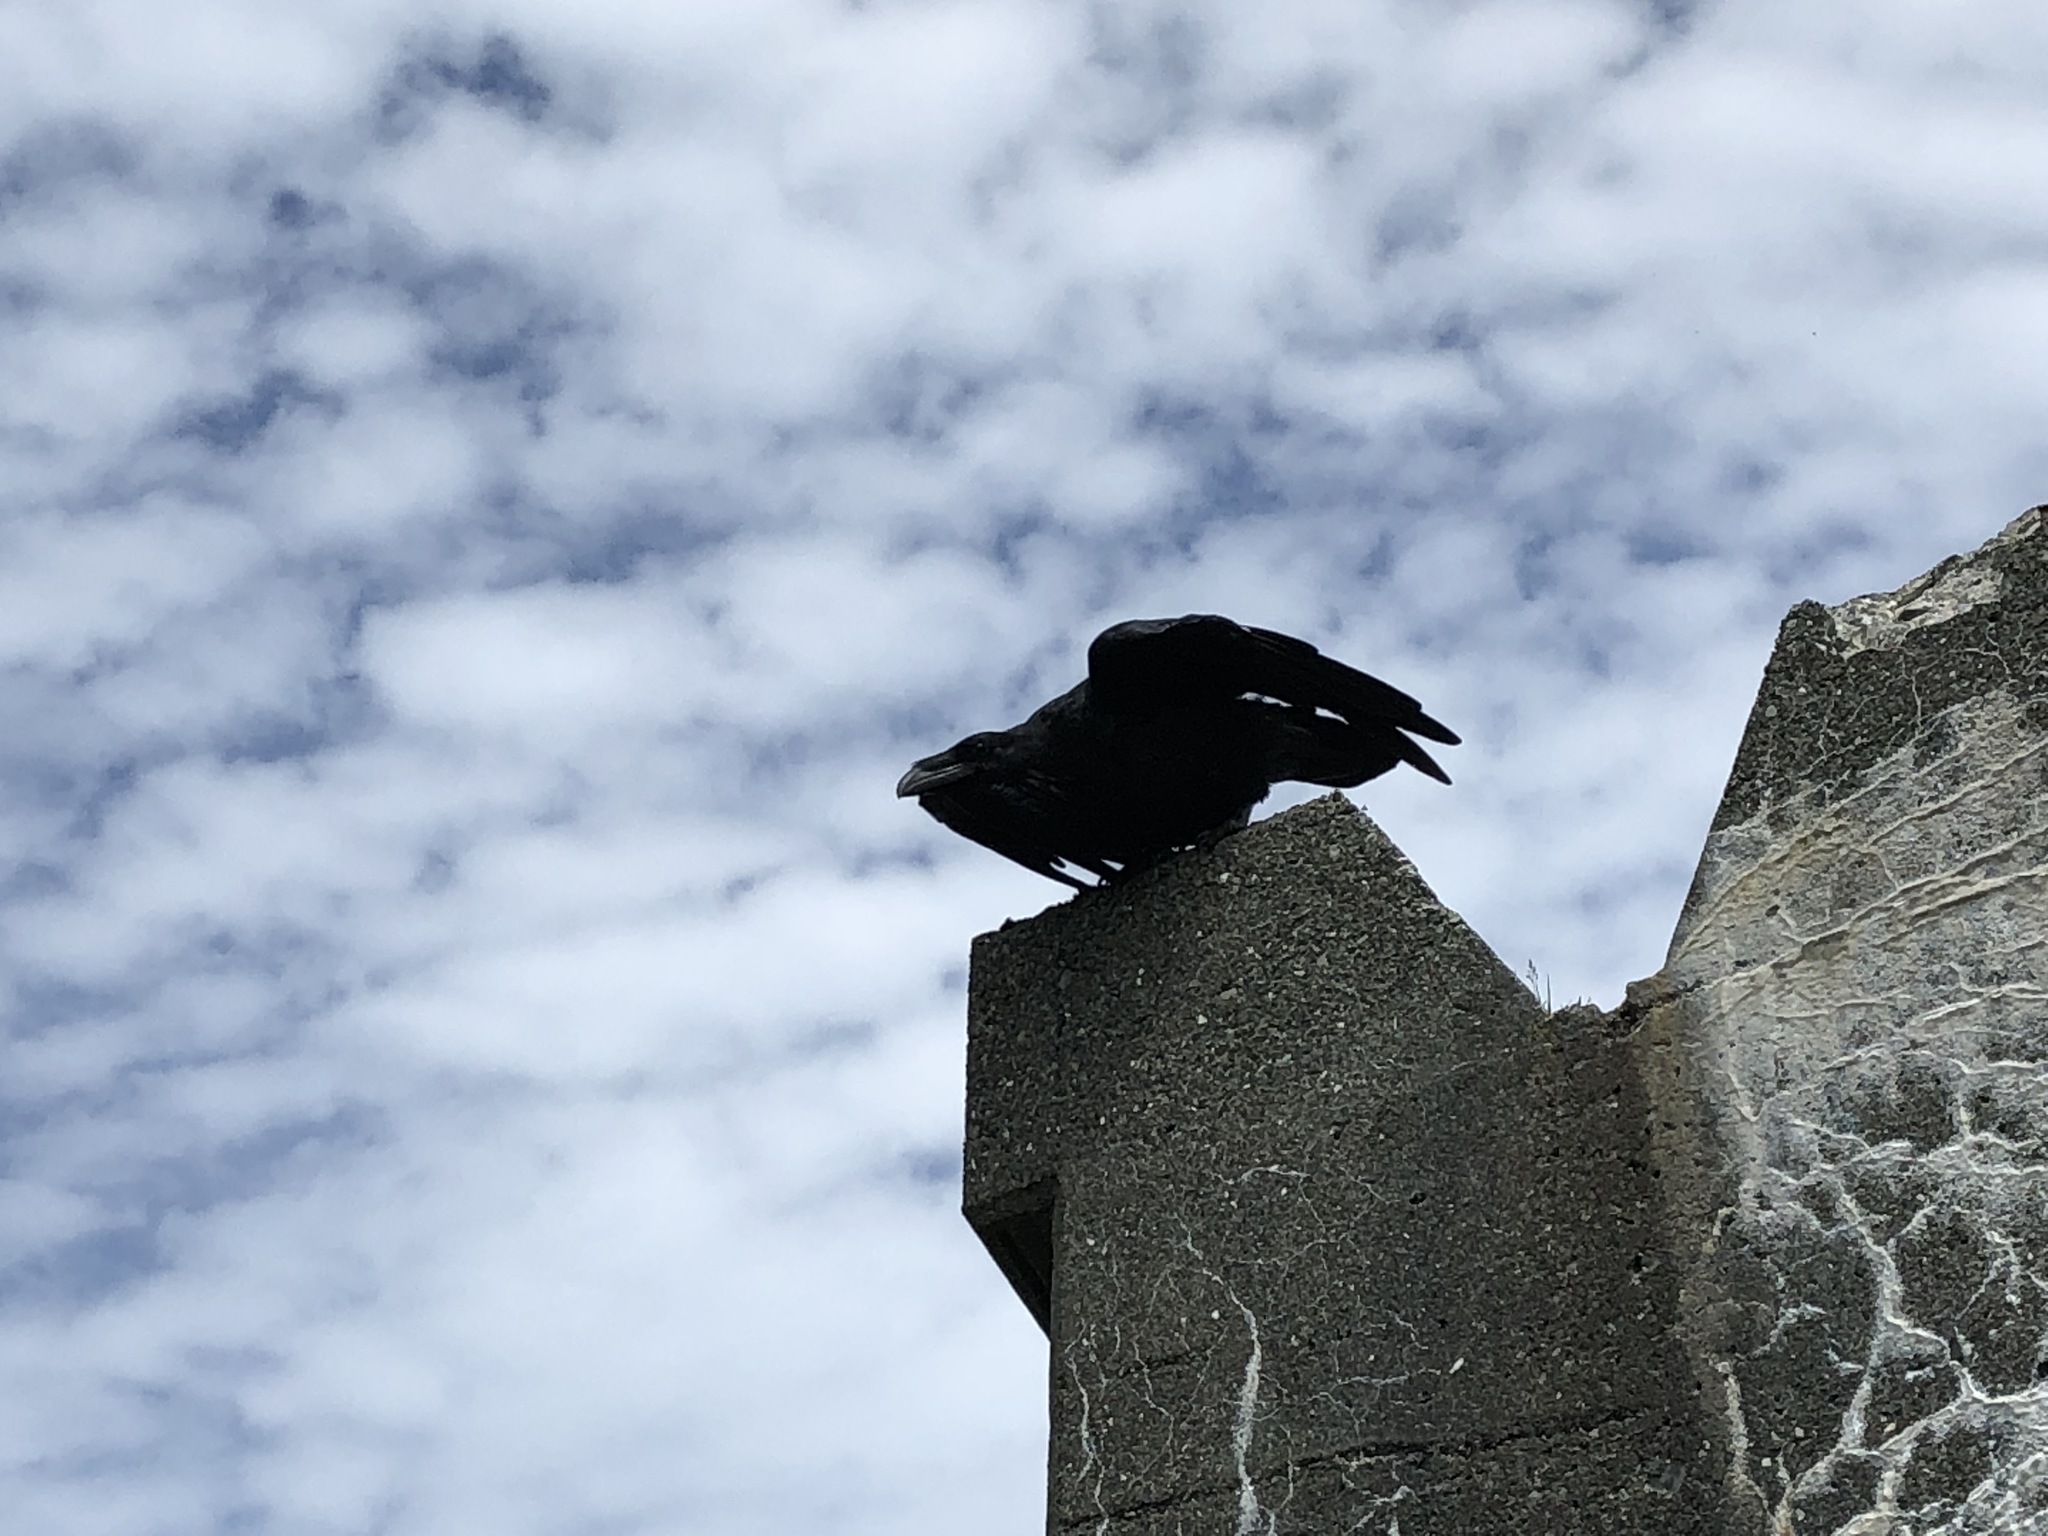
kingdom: Animalia
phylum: Chordata
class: Aves
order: Passeriformes
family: Corvidae
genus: Corvus
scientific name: Corvus corax
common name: Common raven
